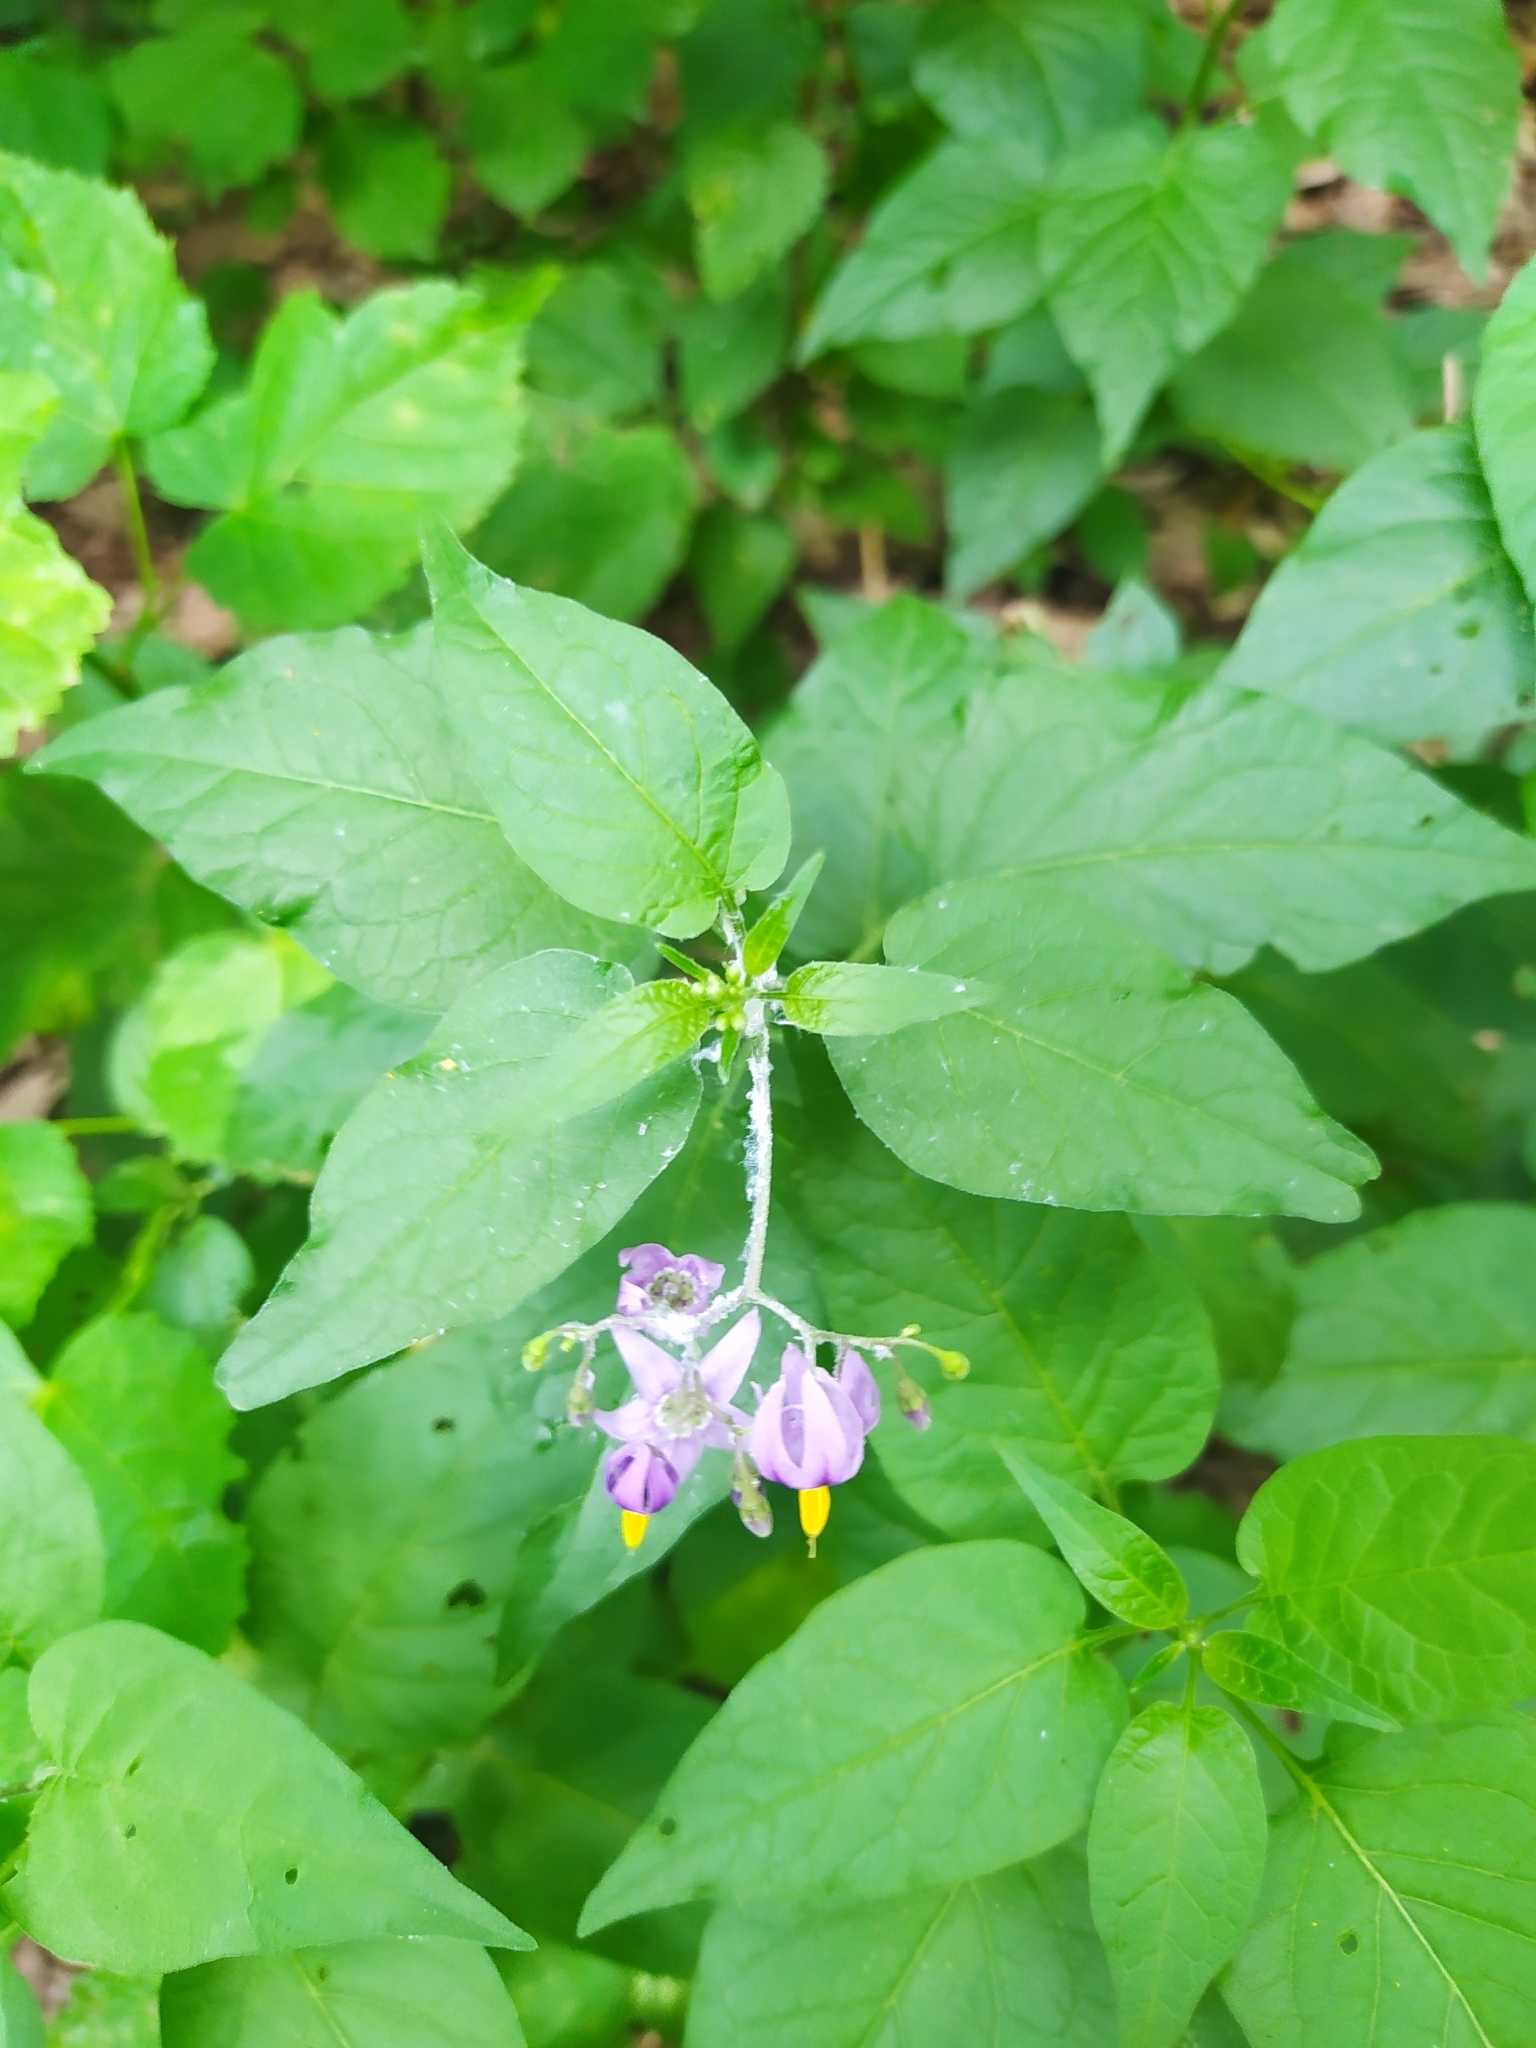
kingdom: Plantae
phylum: Tracheophyta
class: Magnoliopsida
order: Solanales
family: Solanaceae
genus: Solanum
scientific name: Solanum dulcamara
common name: Climbing nightshade
